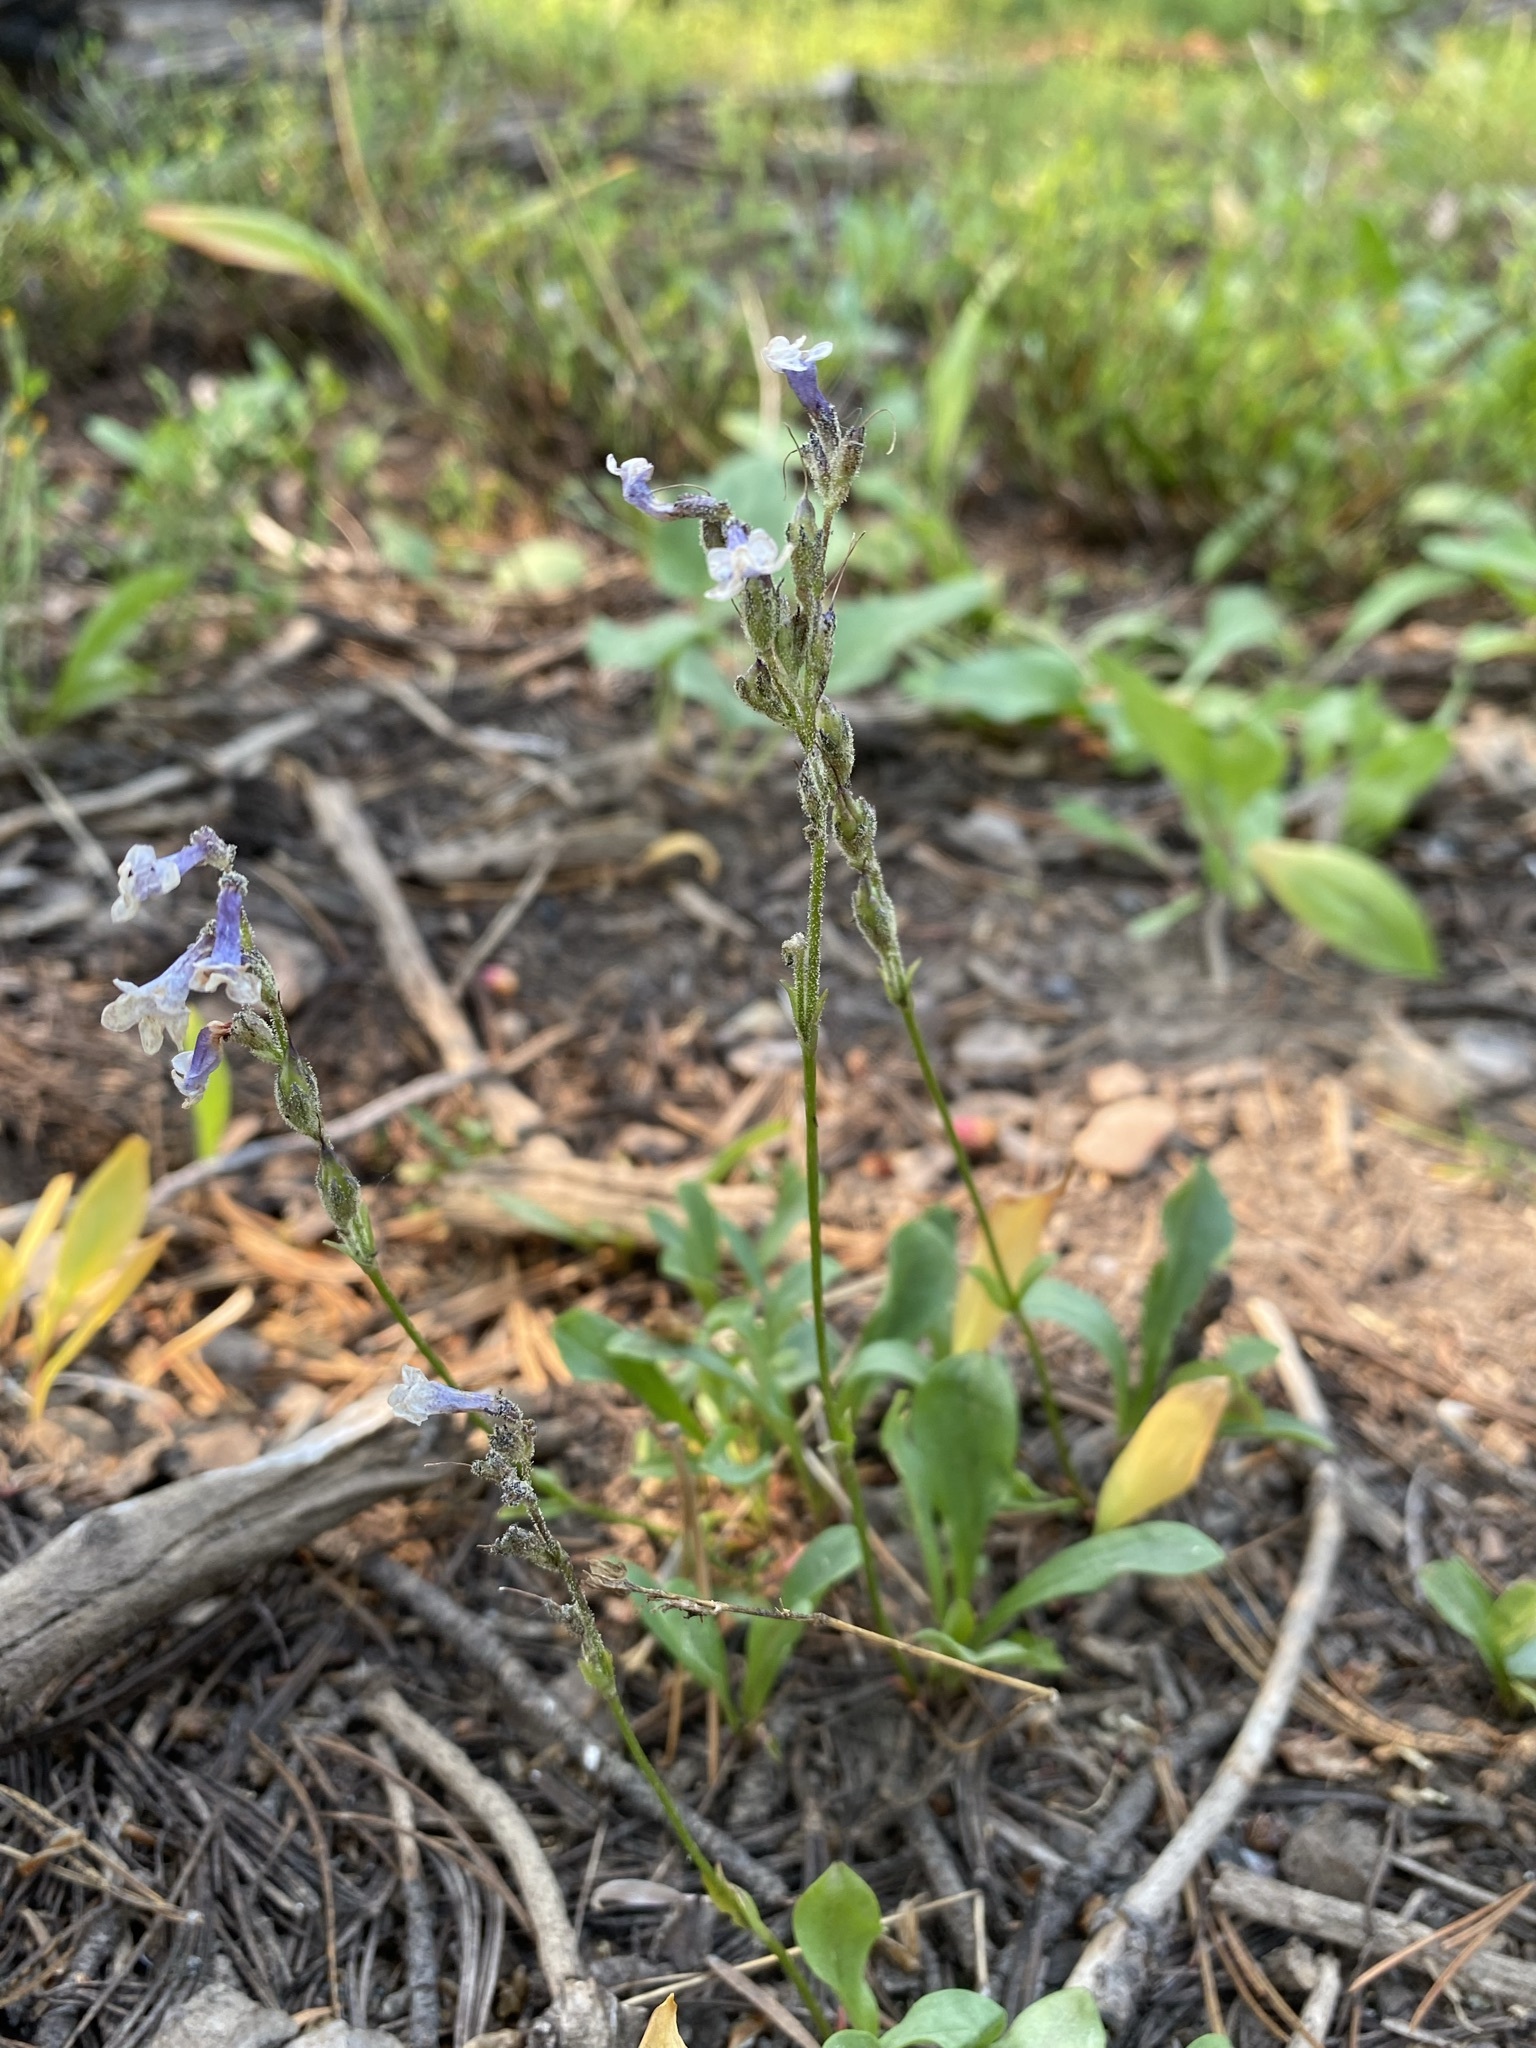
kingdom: Plantae
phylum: Tracheophyta
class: Magnoliopsida
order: Lamiales
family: Plantaginaceae
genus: Chionophila
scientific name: Chionophila tweedyi
